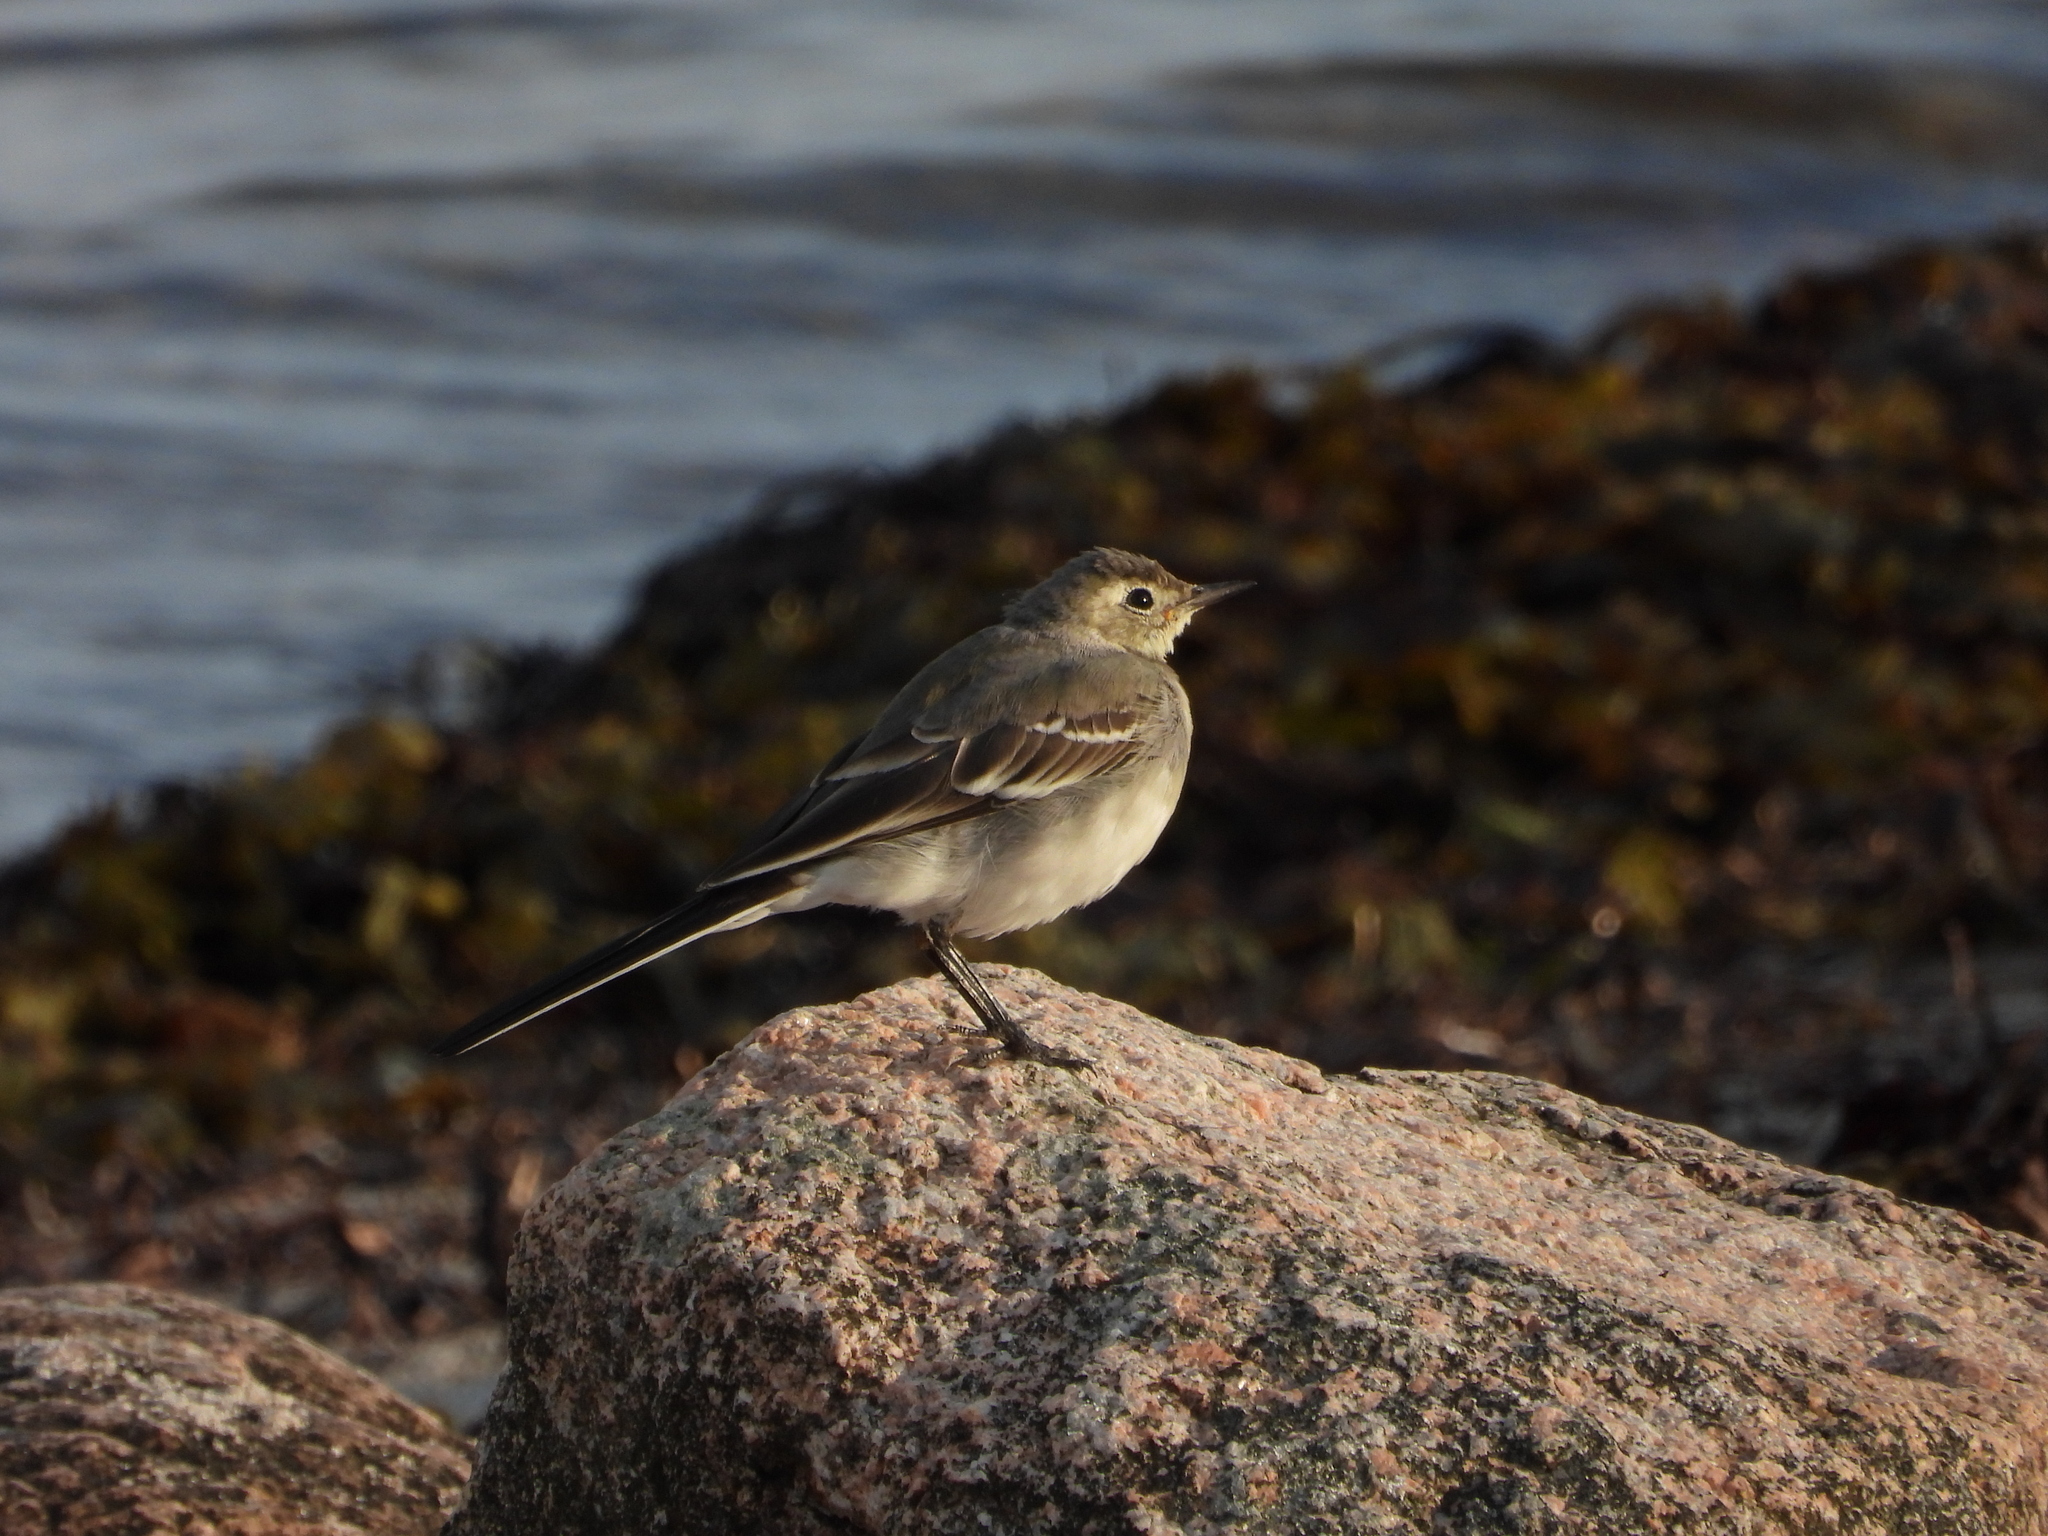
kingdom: Animalia
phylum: Chordata
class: Aves
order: Passeriformes
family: Motacillidae
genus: Motacilla
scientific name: Motacilla alba
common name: White wagtail
